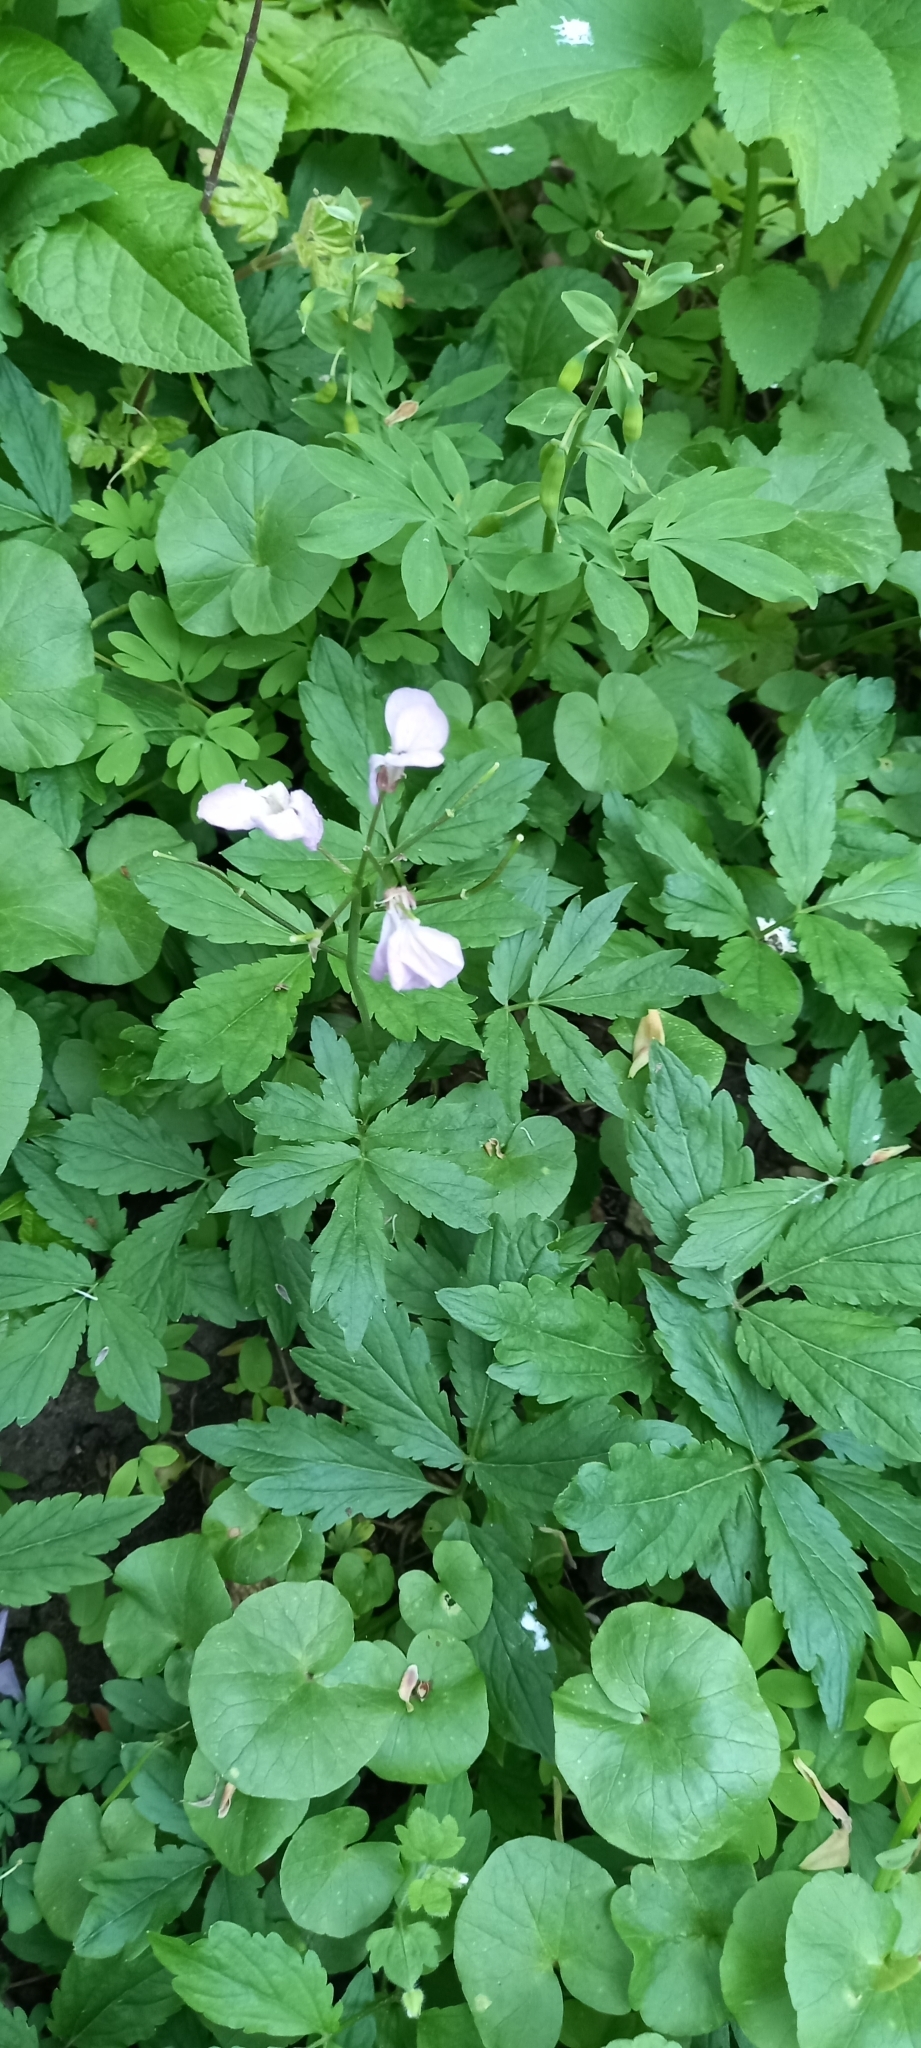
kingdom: Plantae
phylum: Tracheophyta
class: Magnoliopsida
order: Brassicales
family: Brassicaceae
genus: Cardamine
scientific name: Cardamine quinquefolia
